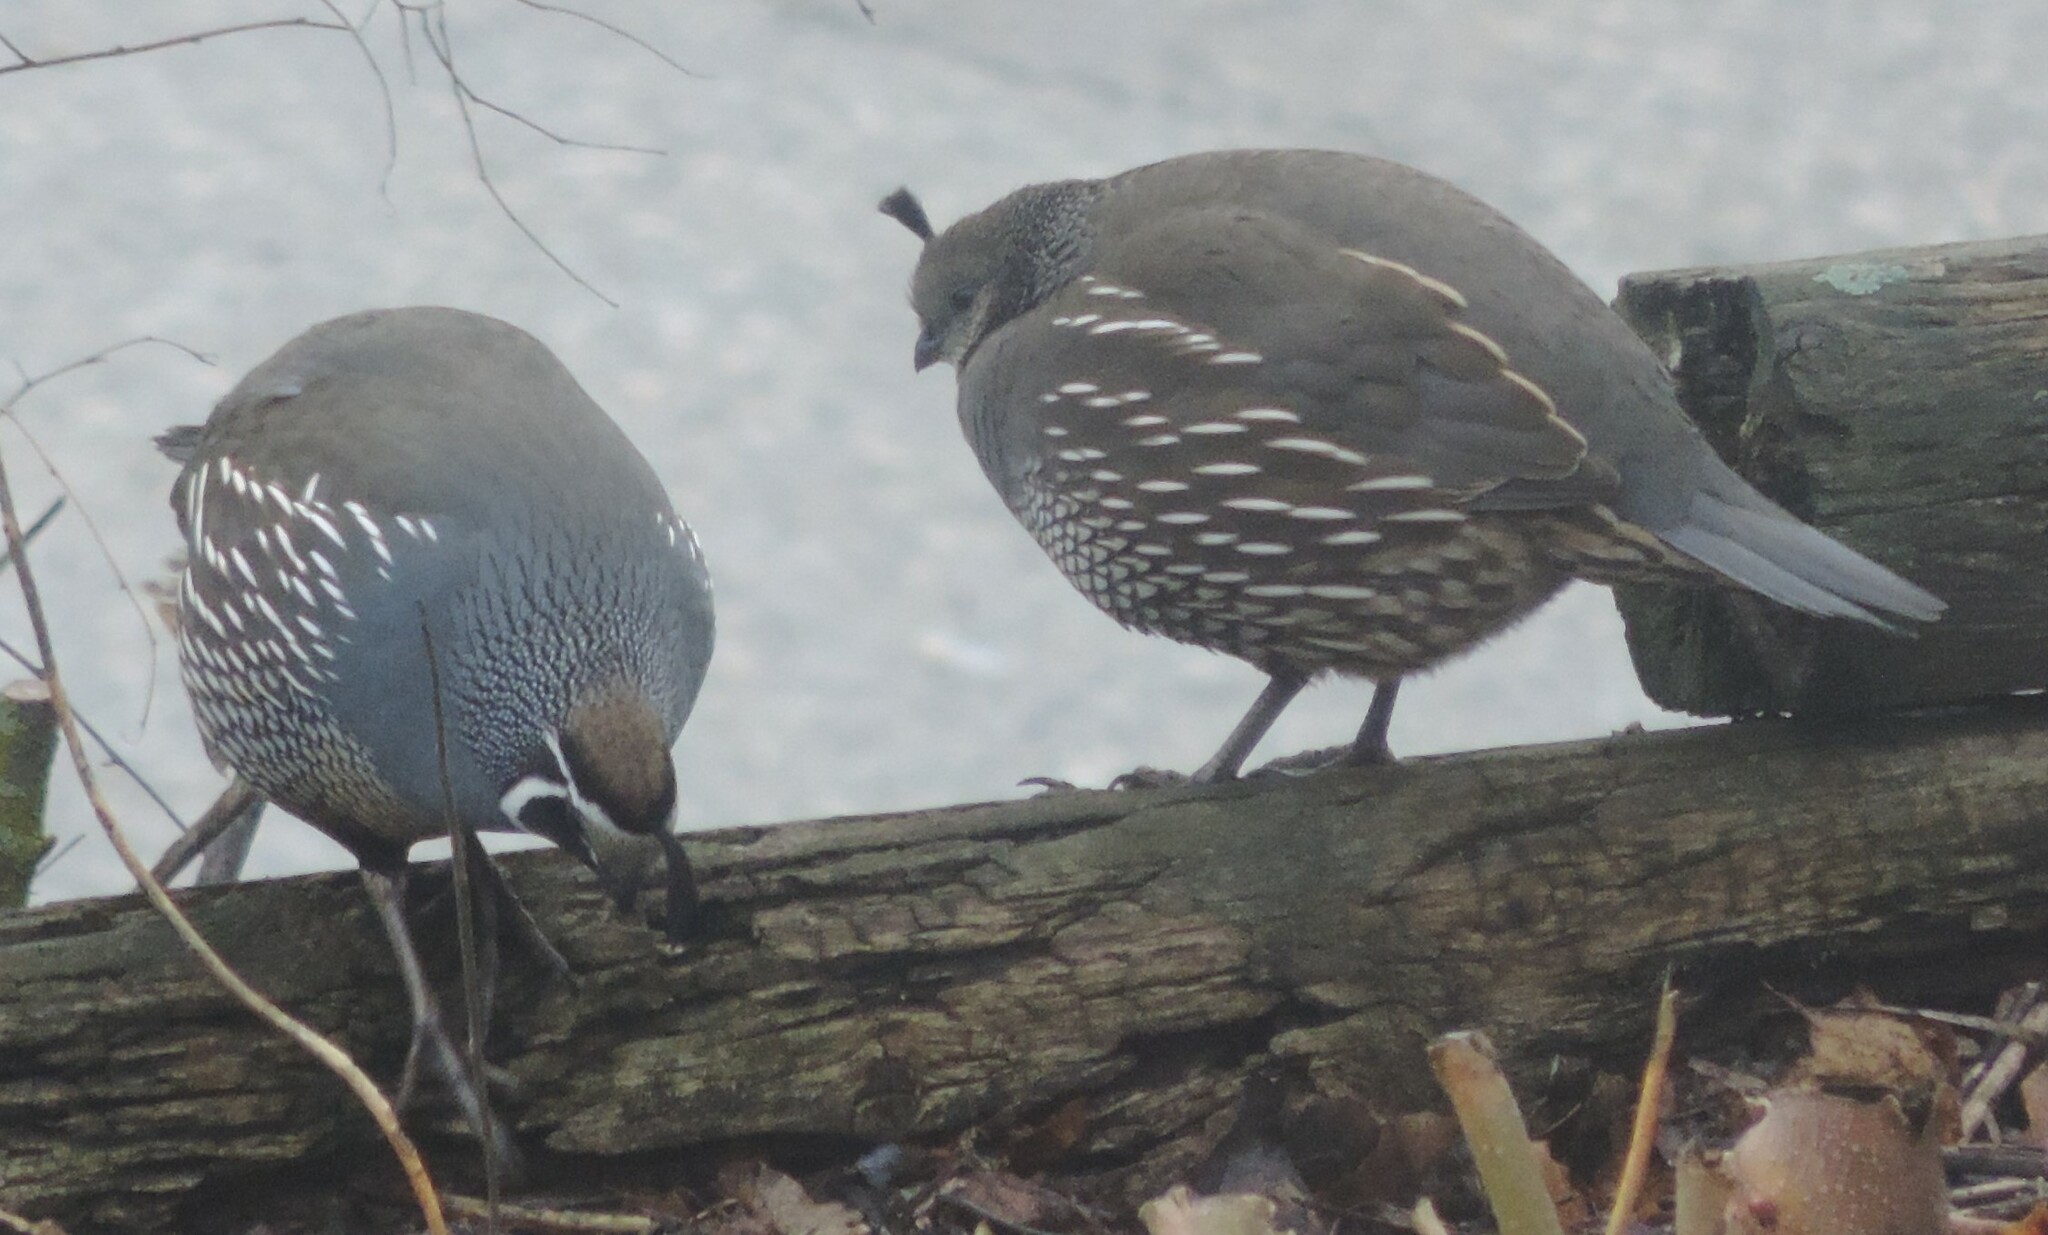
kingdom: Animalia
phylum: Chordata
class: Aves
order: Galliformes
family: Odontophoridae
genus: Callipepla
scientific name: Callipepla californica
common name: California quail
